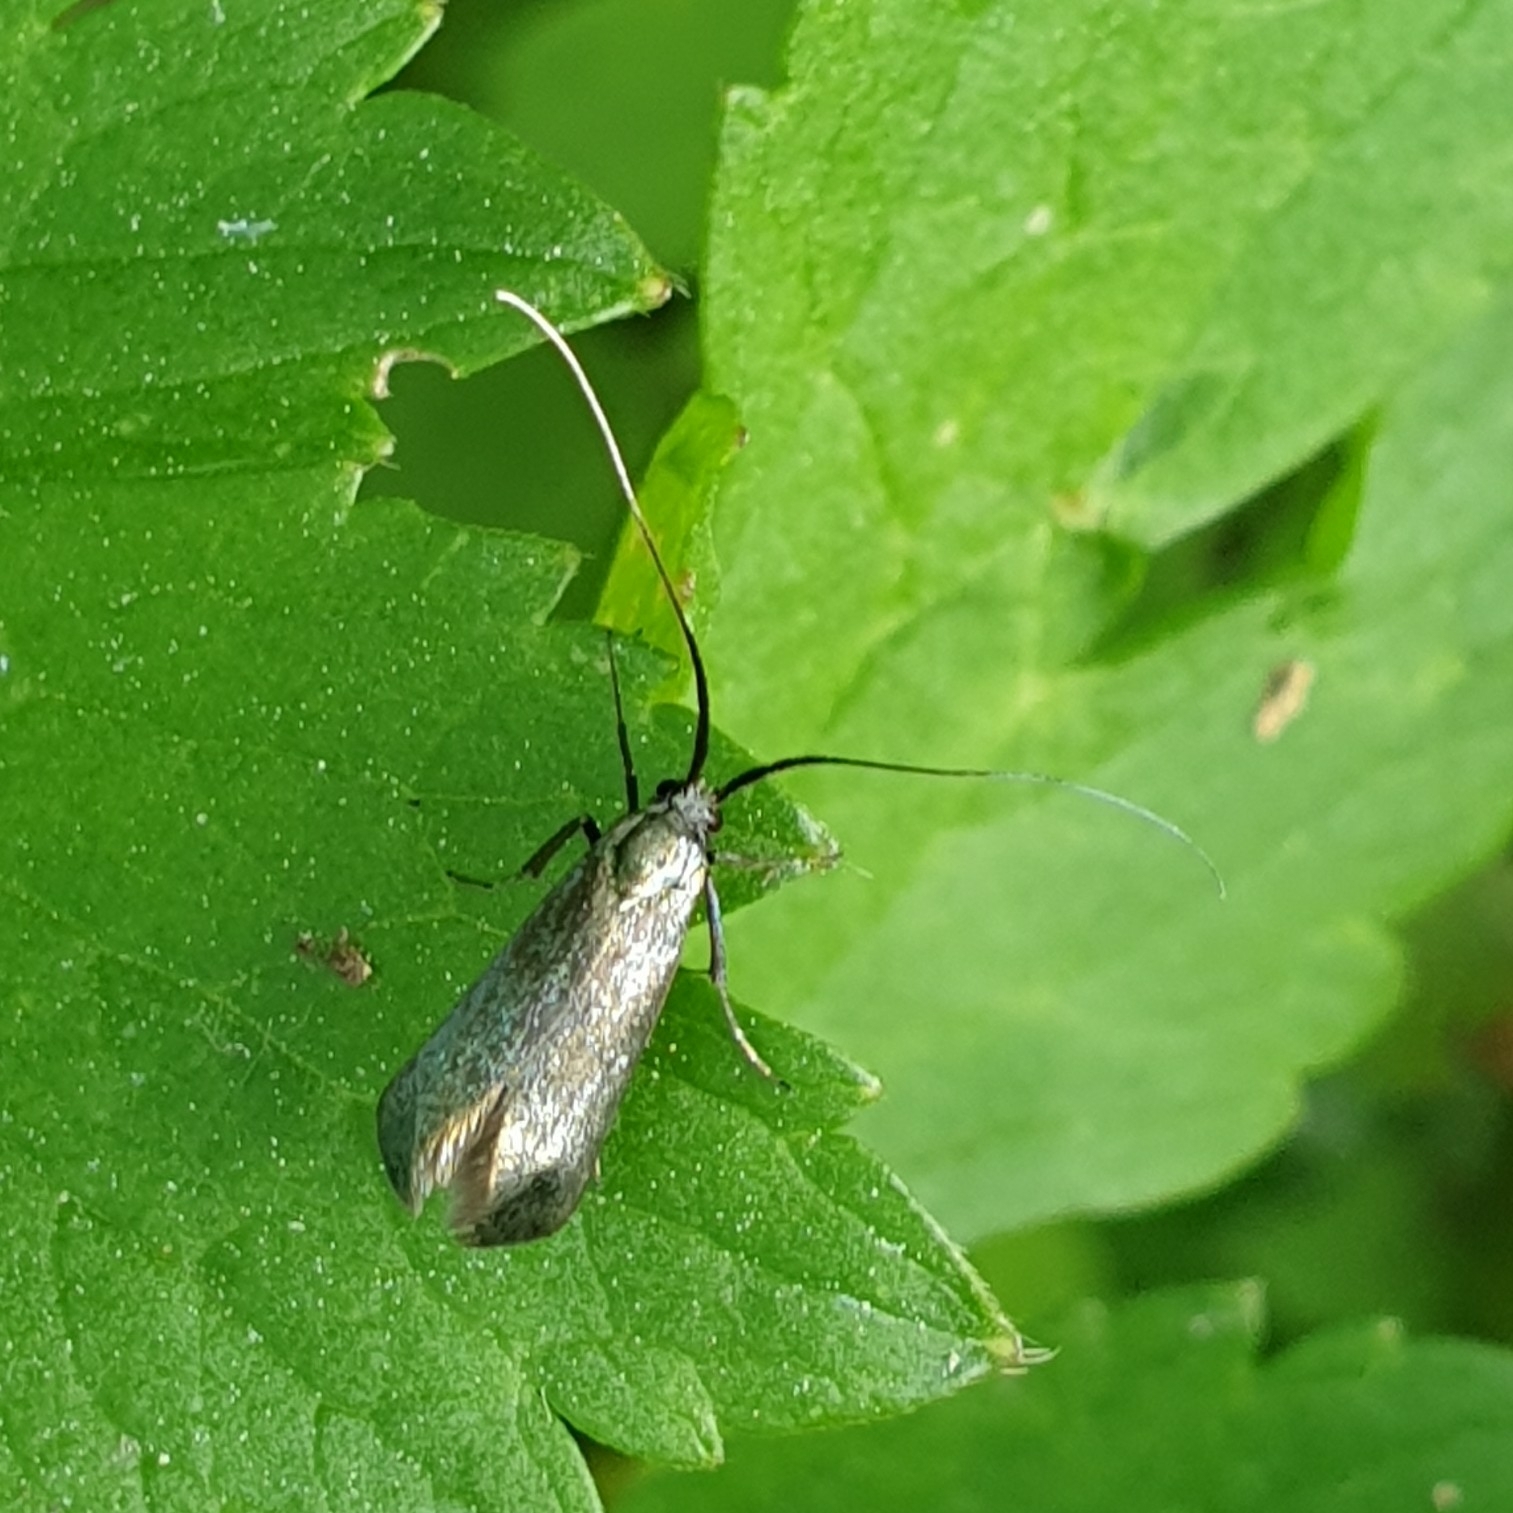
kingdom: Animalia
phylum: Arthropoda
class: Insecta
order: Lepidoptera
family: Adelidae
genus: Adela
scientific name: Adela viridella
